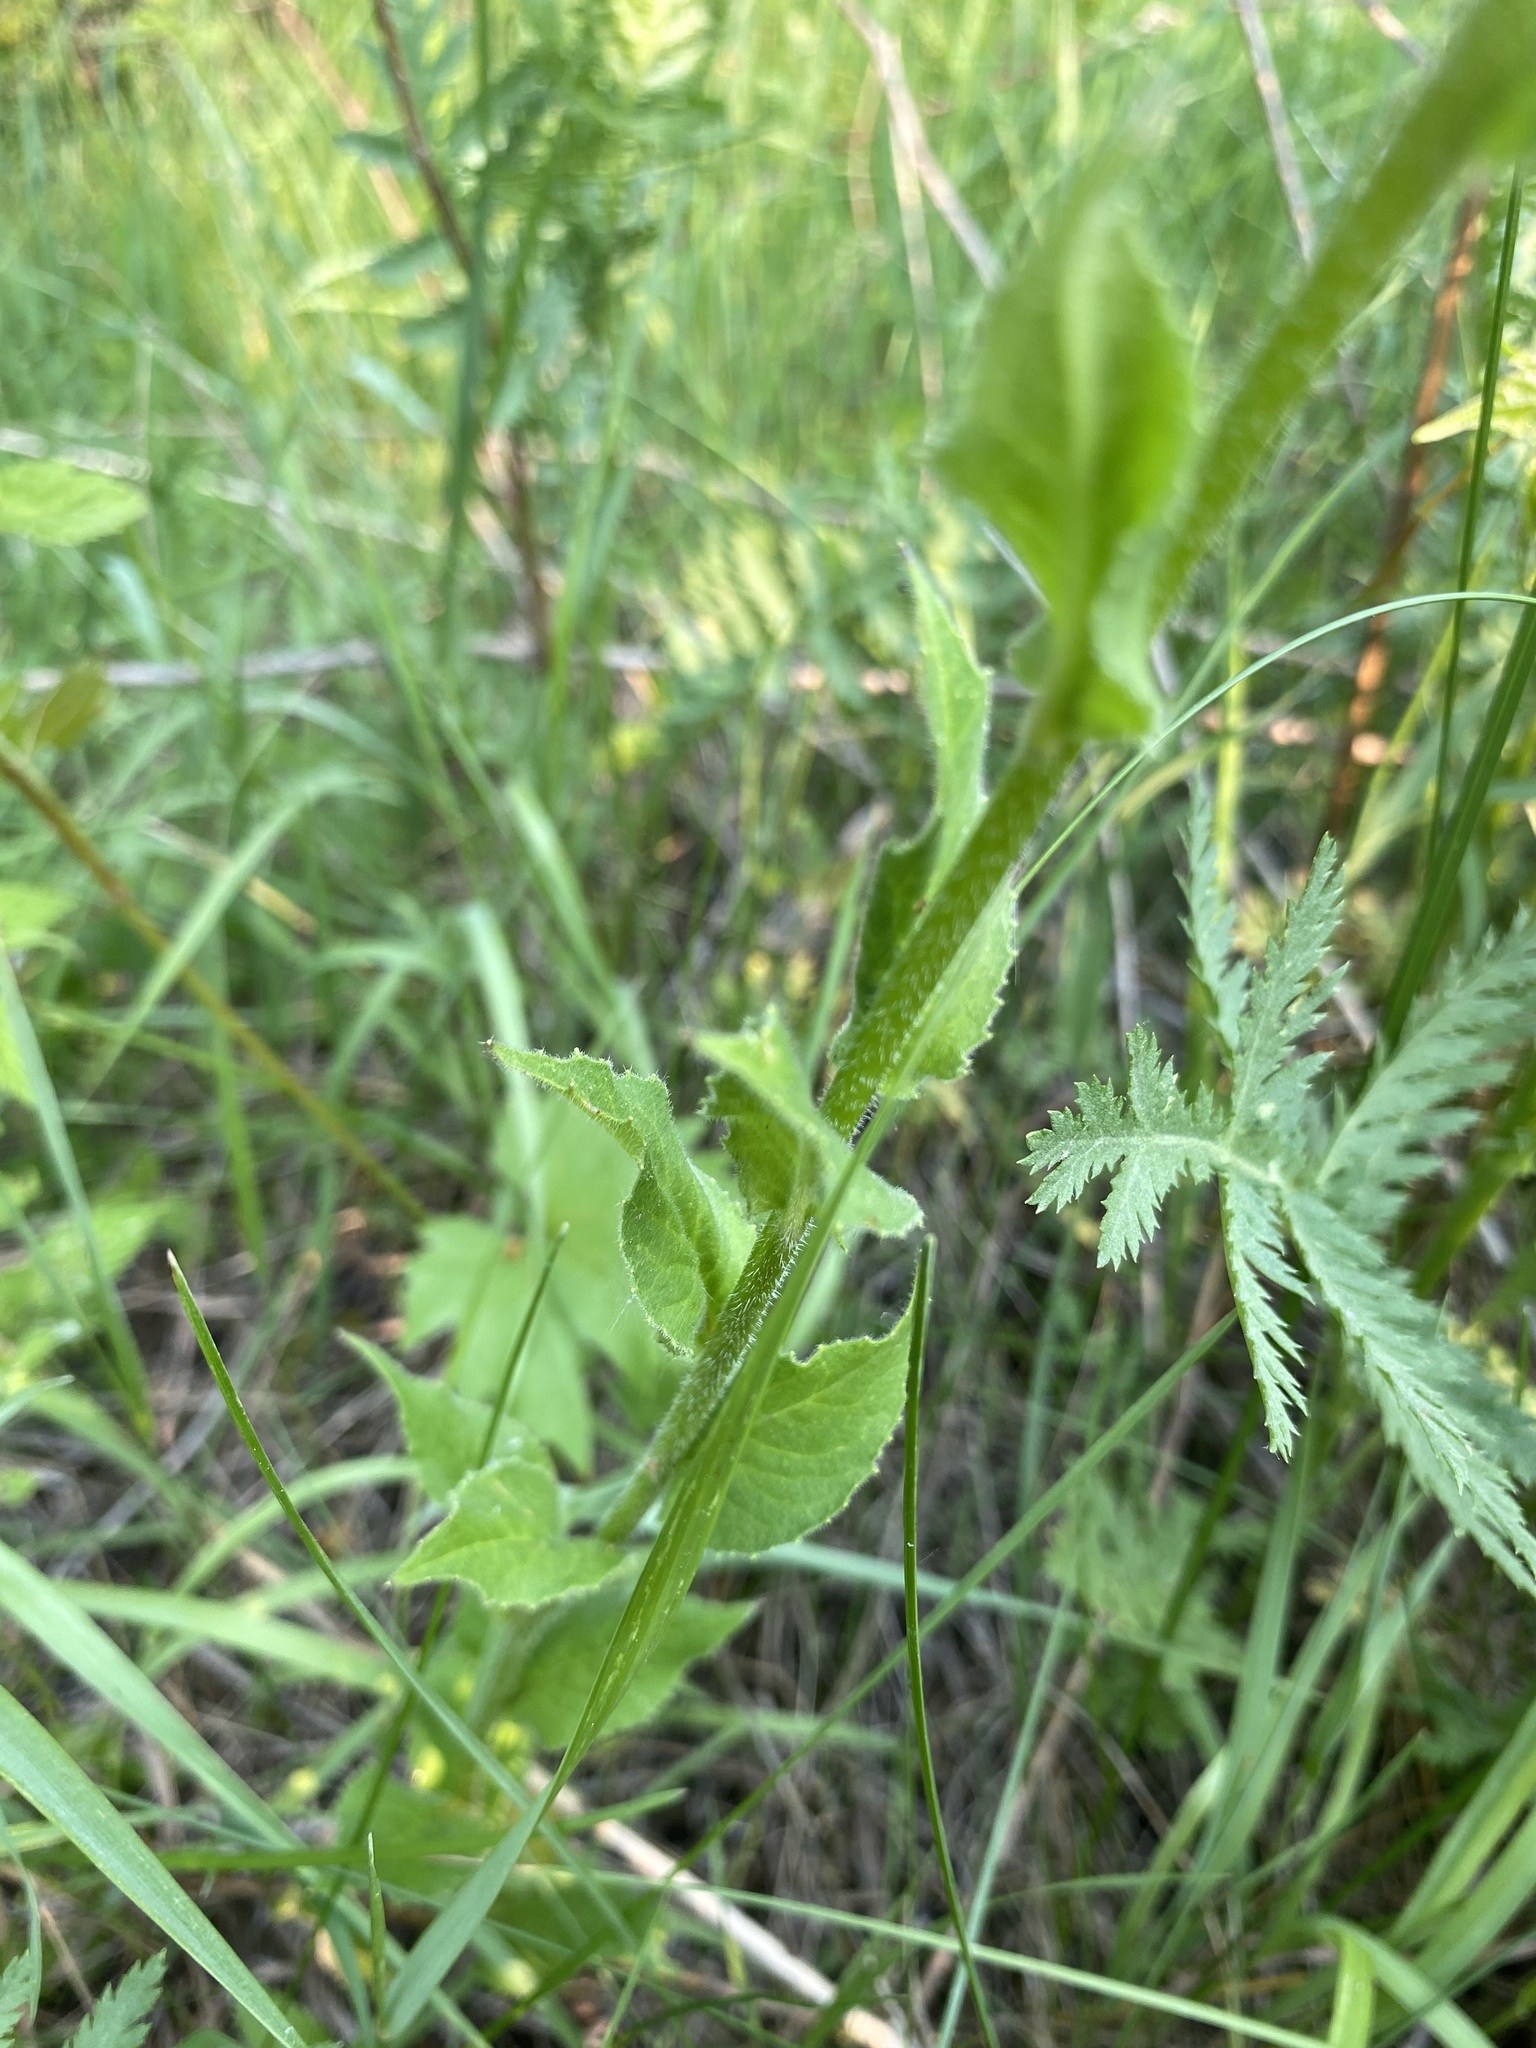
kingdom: Plantae
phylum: Tracheophyta
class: Magnoliopsida
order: Brassicales
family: Brassicaceae
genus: Hesperis
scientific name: Hesperis matronalis
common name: Dame's-violet
